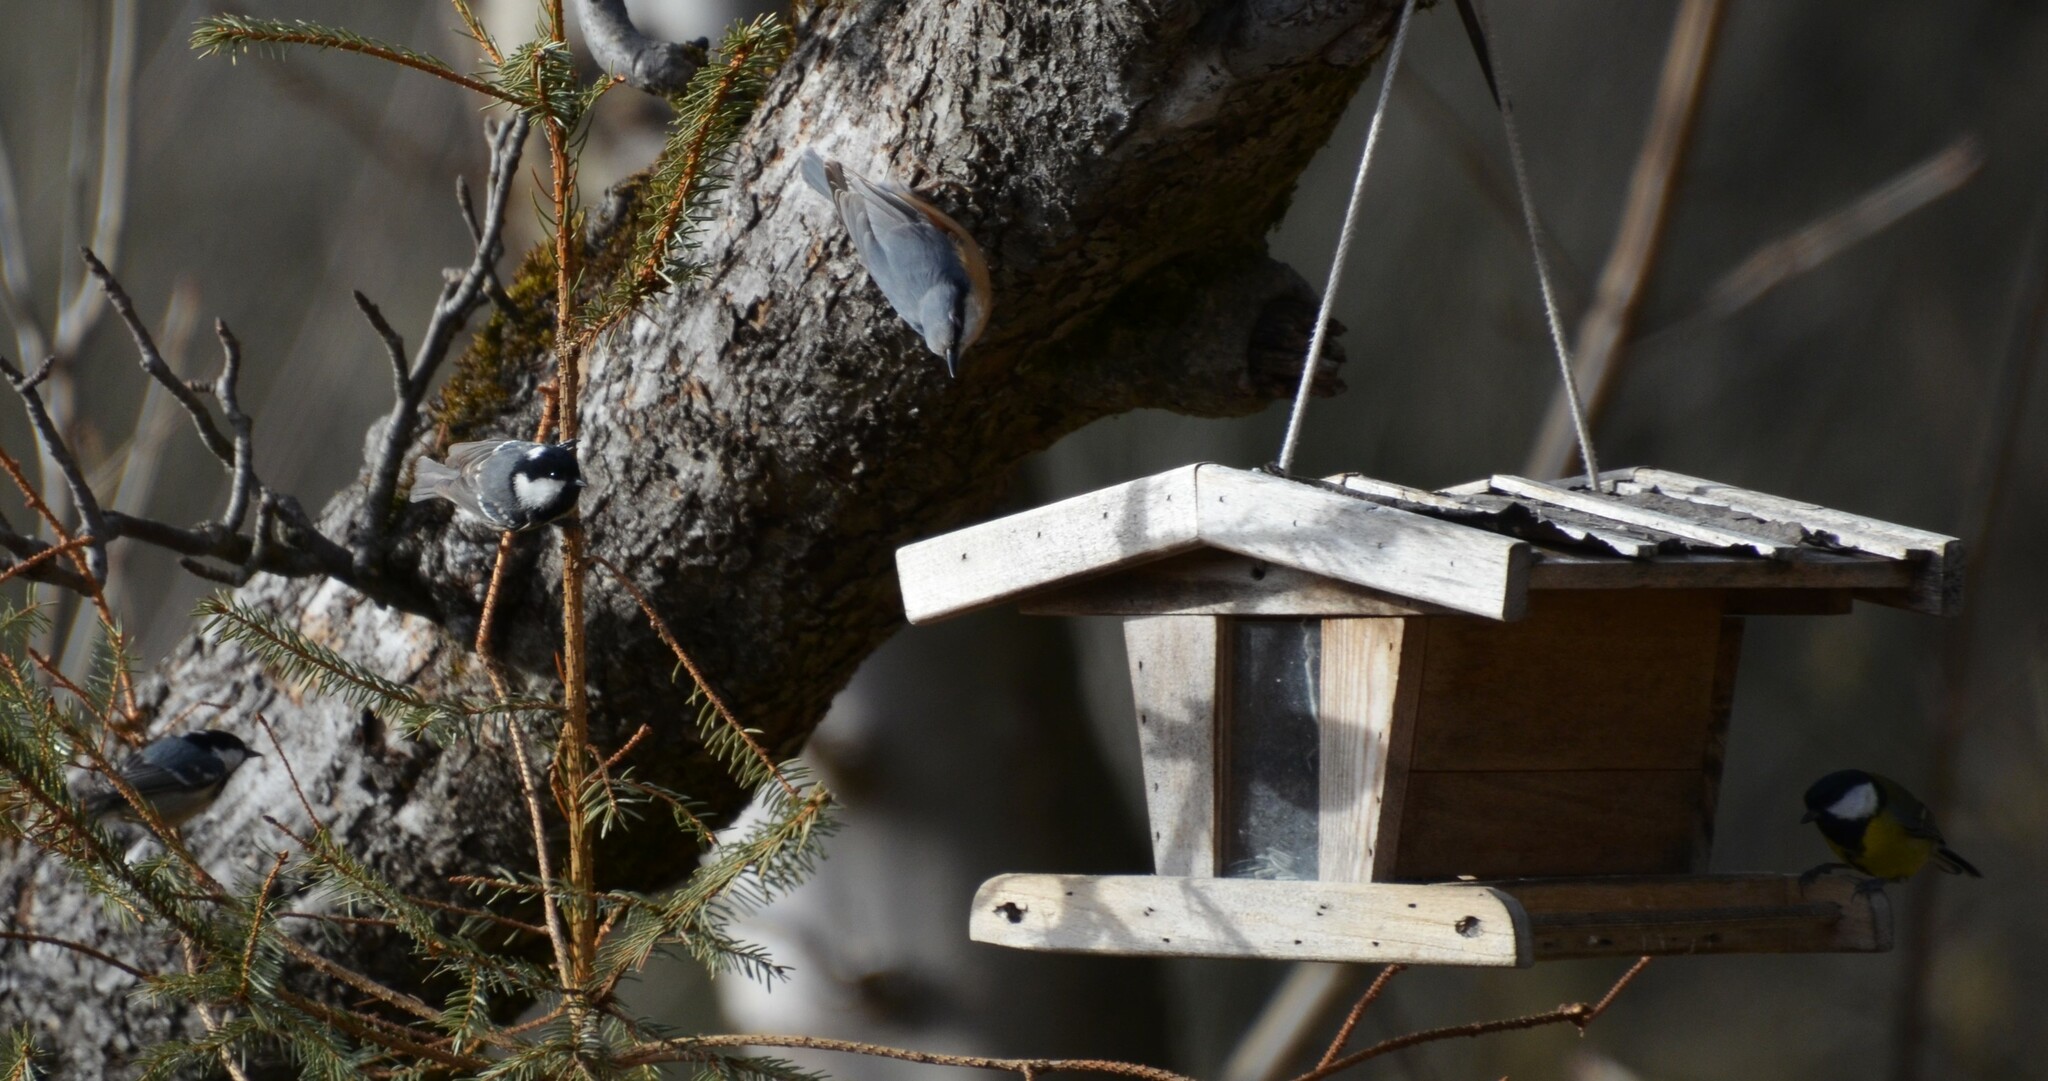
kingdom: Animalia
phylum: Chordata
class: Aves
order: Passeriformes
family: Sittidae
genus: Sitta
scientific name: Sitta europaea
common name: Eurasian nuthatch
